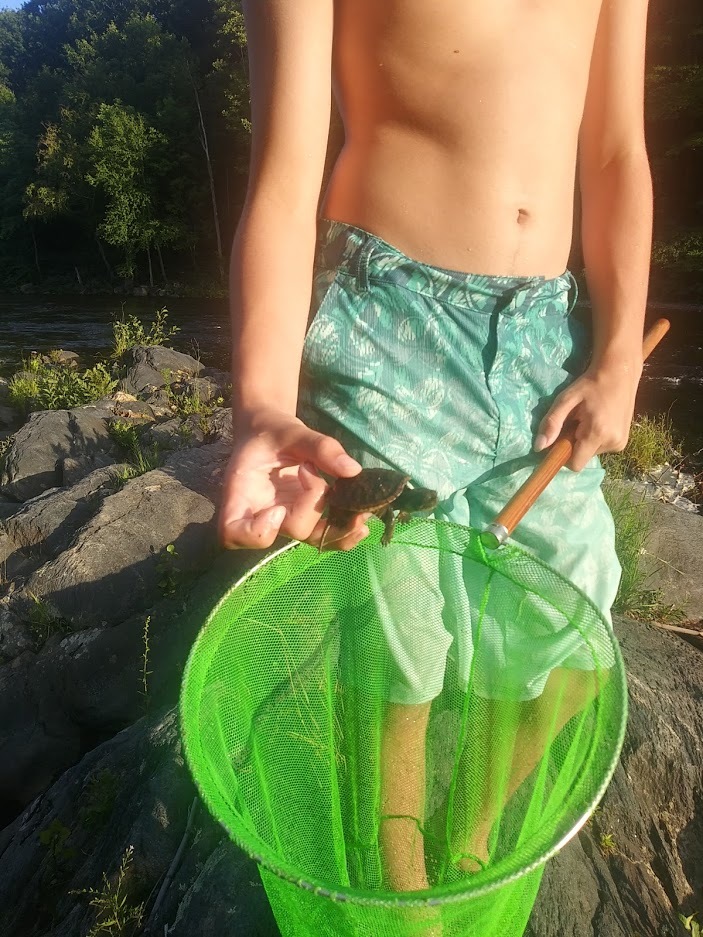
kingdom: Animalia
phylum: Chordata
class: Testudines
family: Chelydridae
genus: Chelydra
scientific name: Chelydra serpentina
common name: Common snapping turtle
